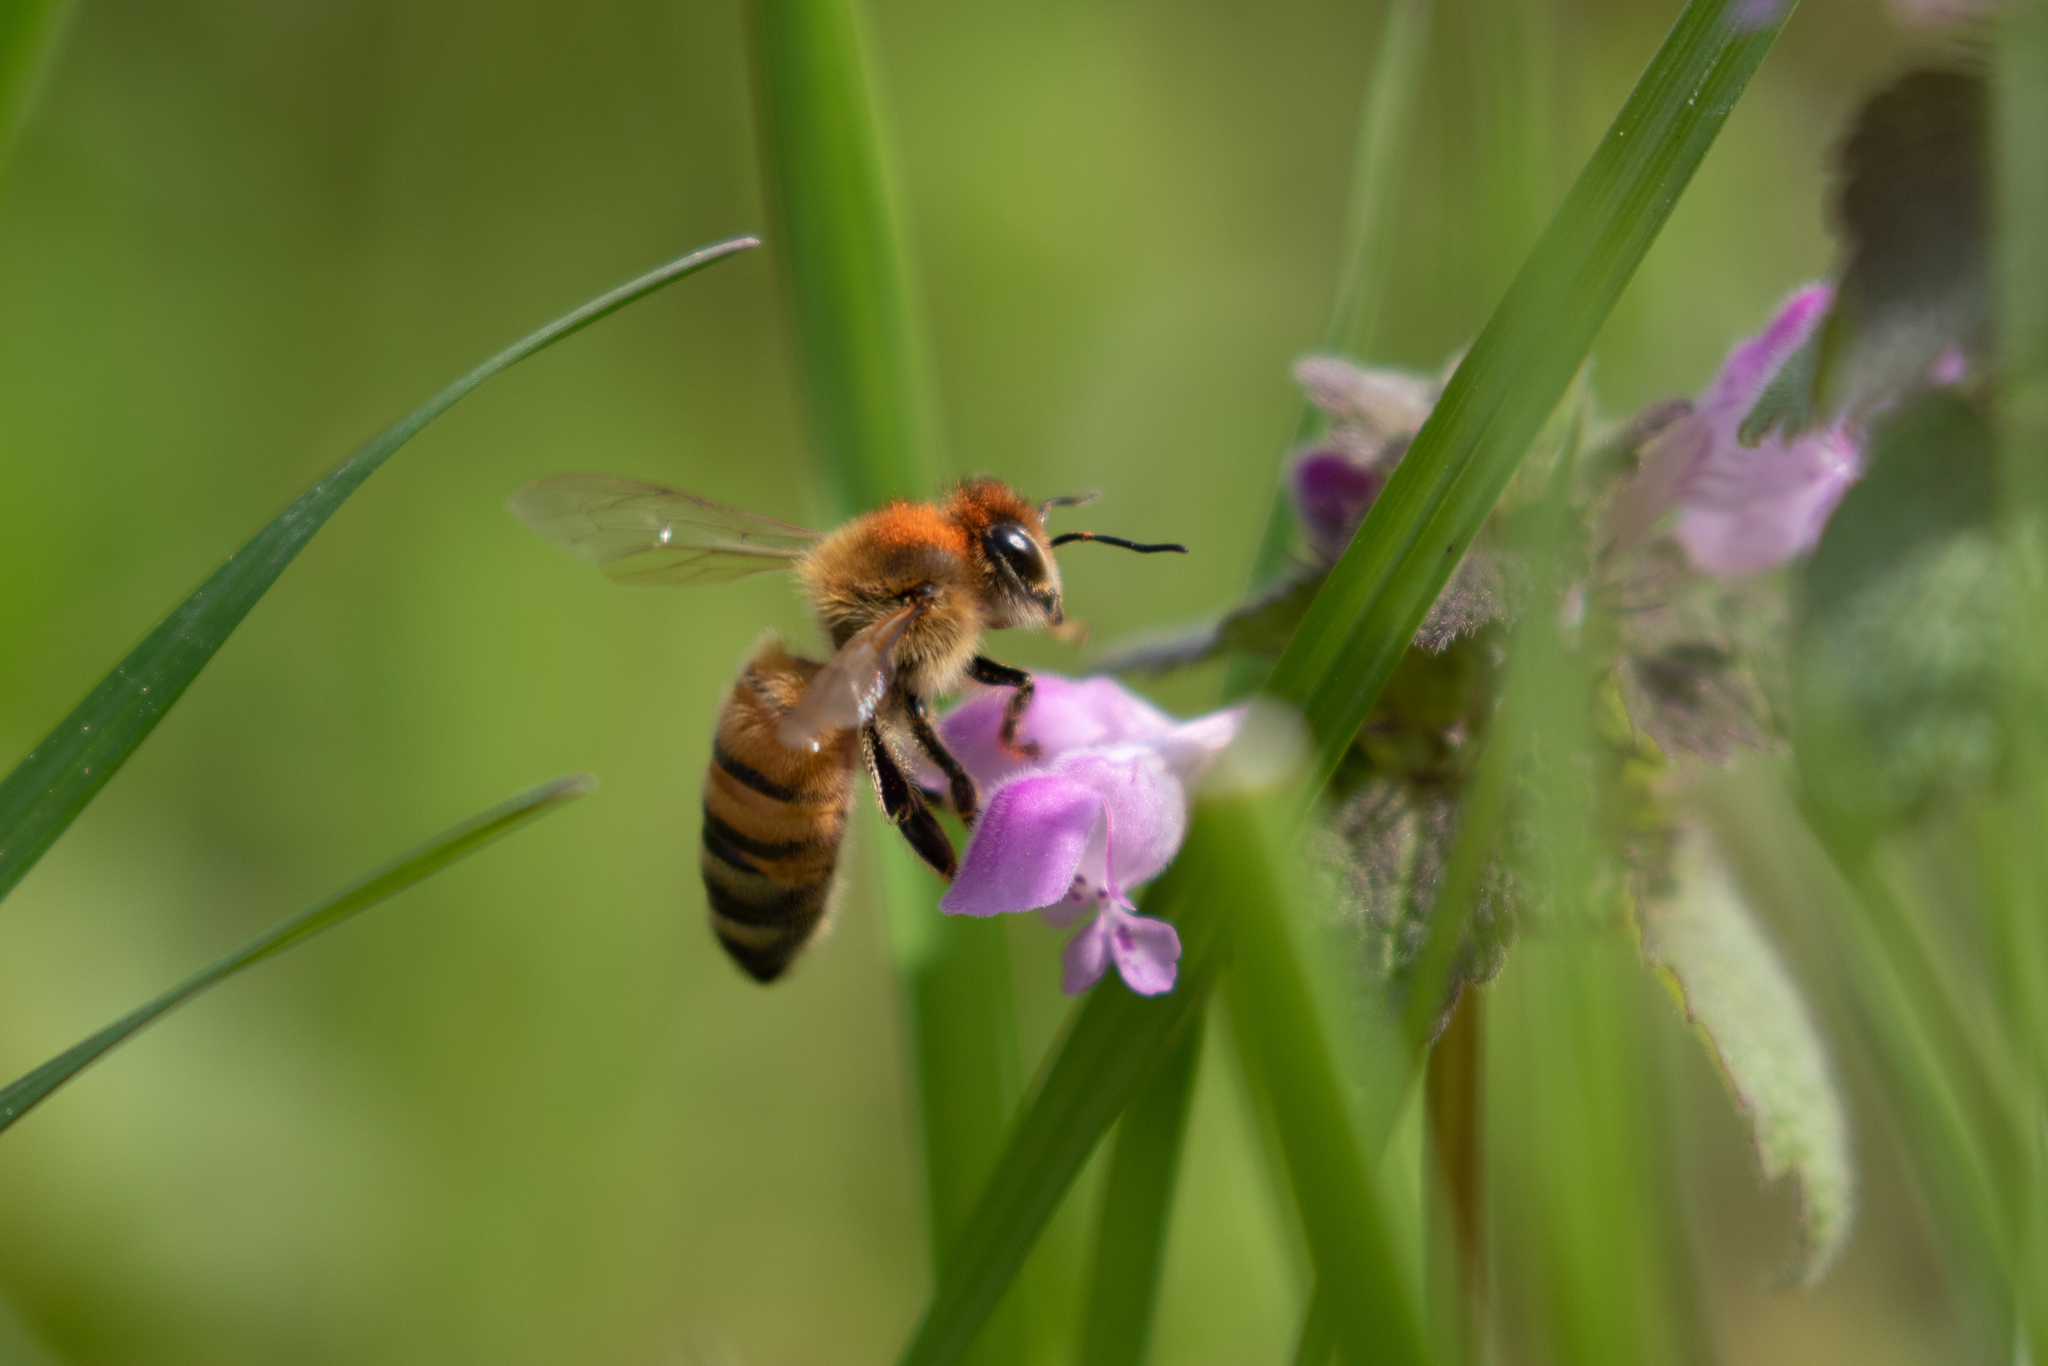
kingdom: Animalia
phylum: Arthropoda
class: Insecta
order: Hymenoptera
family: Apidae
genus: Apis
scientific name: Apis mellifera
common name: Honey bee
